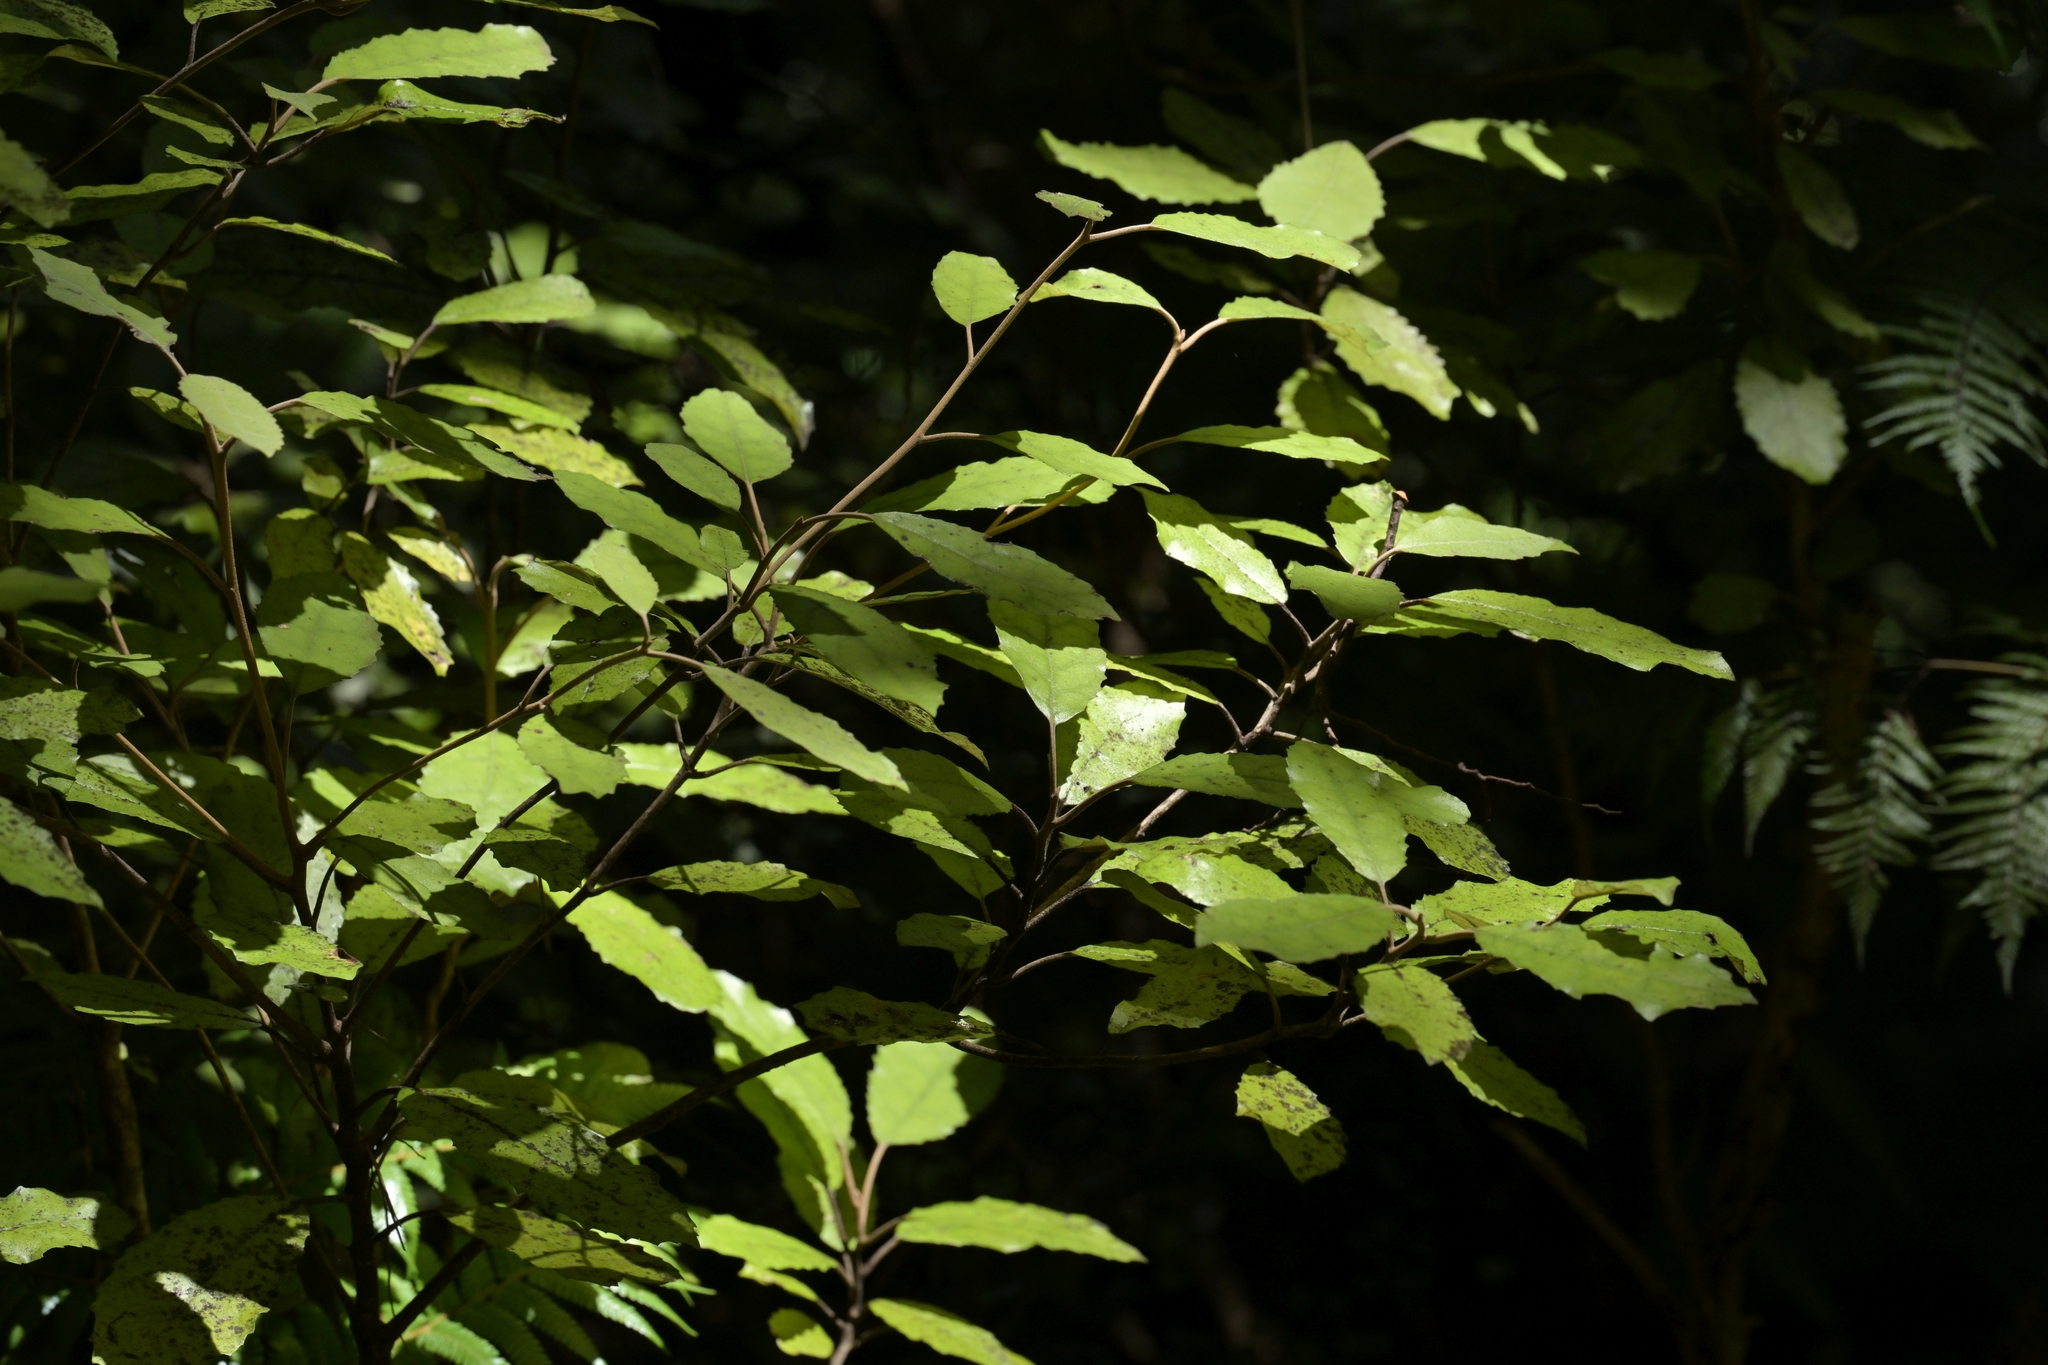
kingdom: Plantae
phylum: Tracheophyta
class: Magnoliopsida
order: Asterales
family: Asteraceae
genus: Olearia
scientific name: Olearia rani
